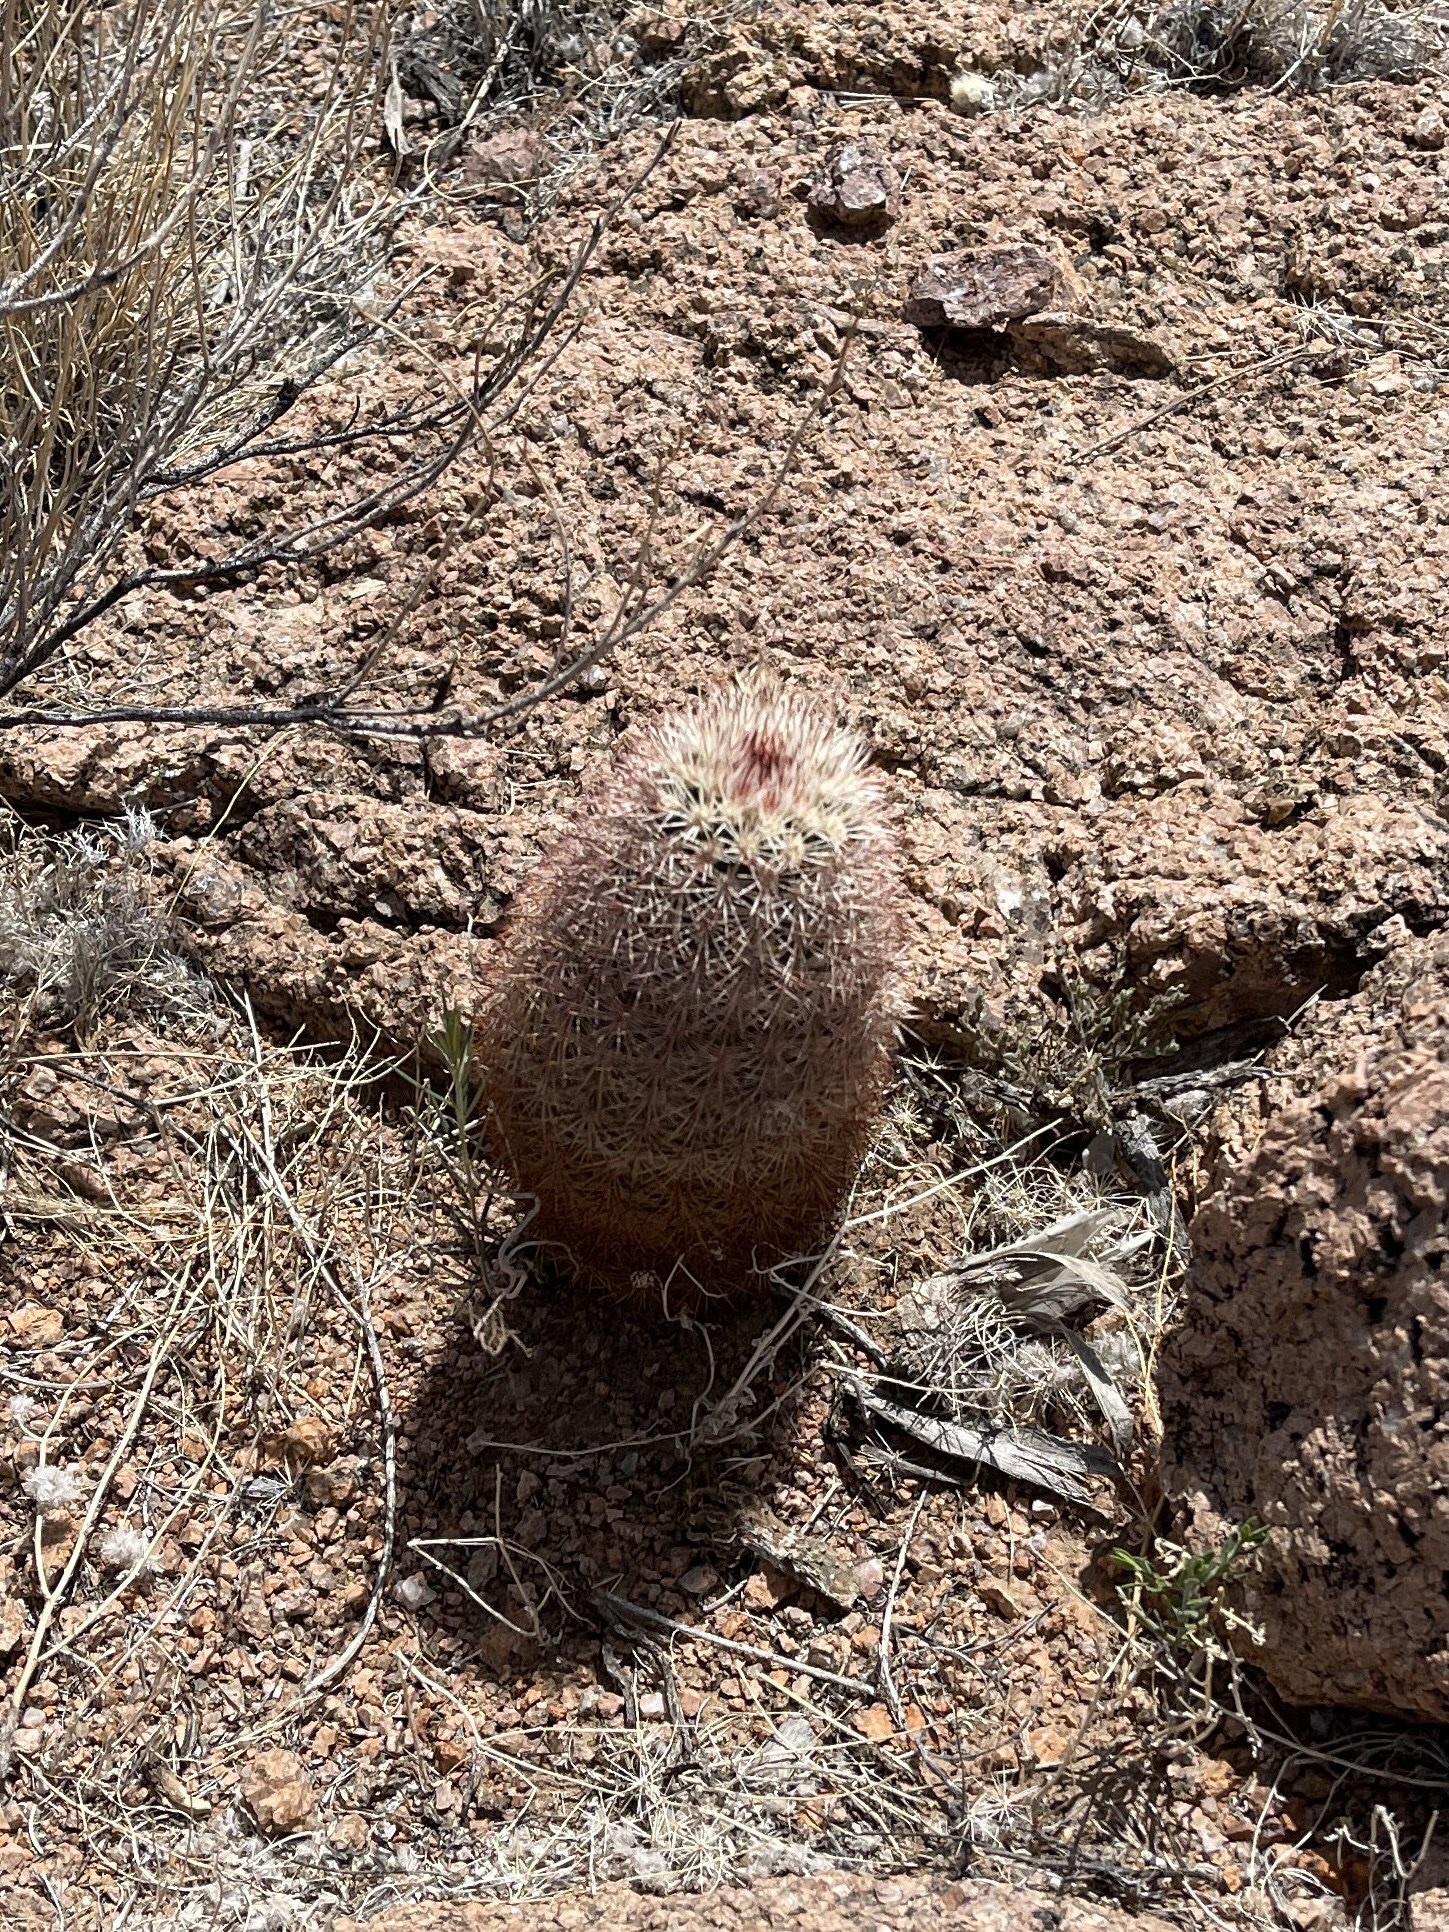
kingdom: Plantae
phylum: Tracheophyta
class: Magnoliopsida
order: Caryophyllales
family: Cactaceae
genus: Echinocereus
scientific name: Echinocereus dasyacanthus
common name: Spiny hedgehog cactus
